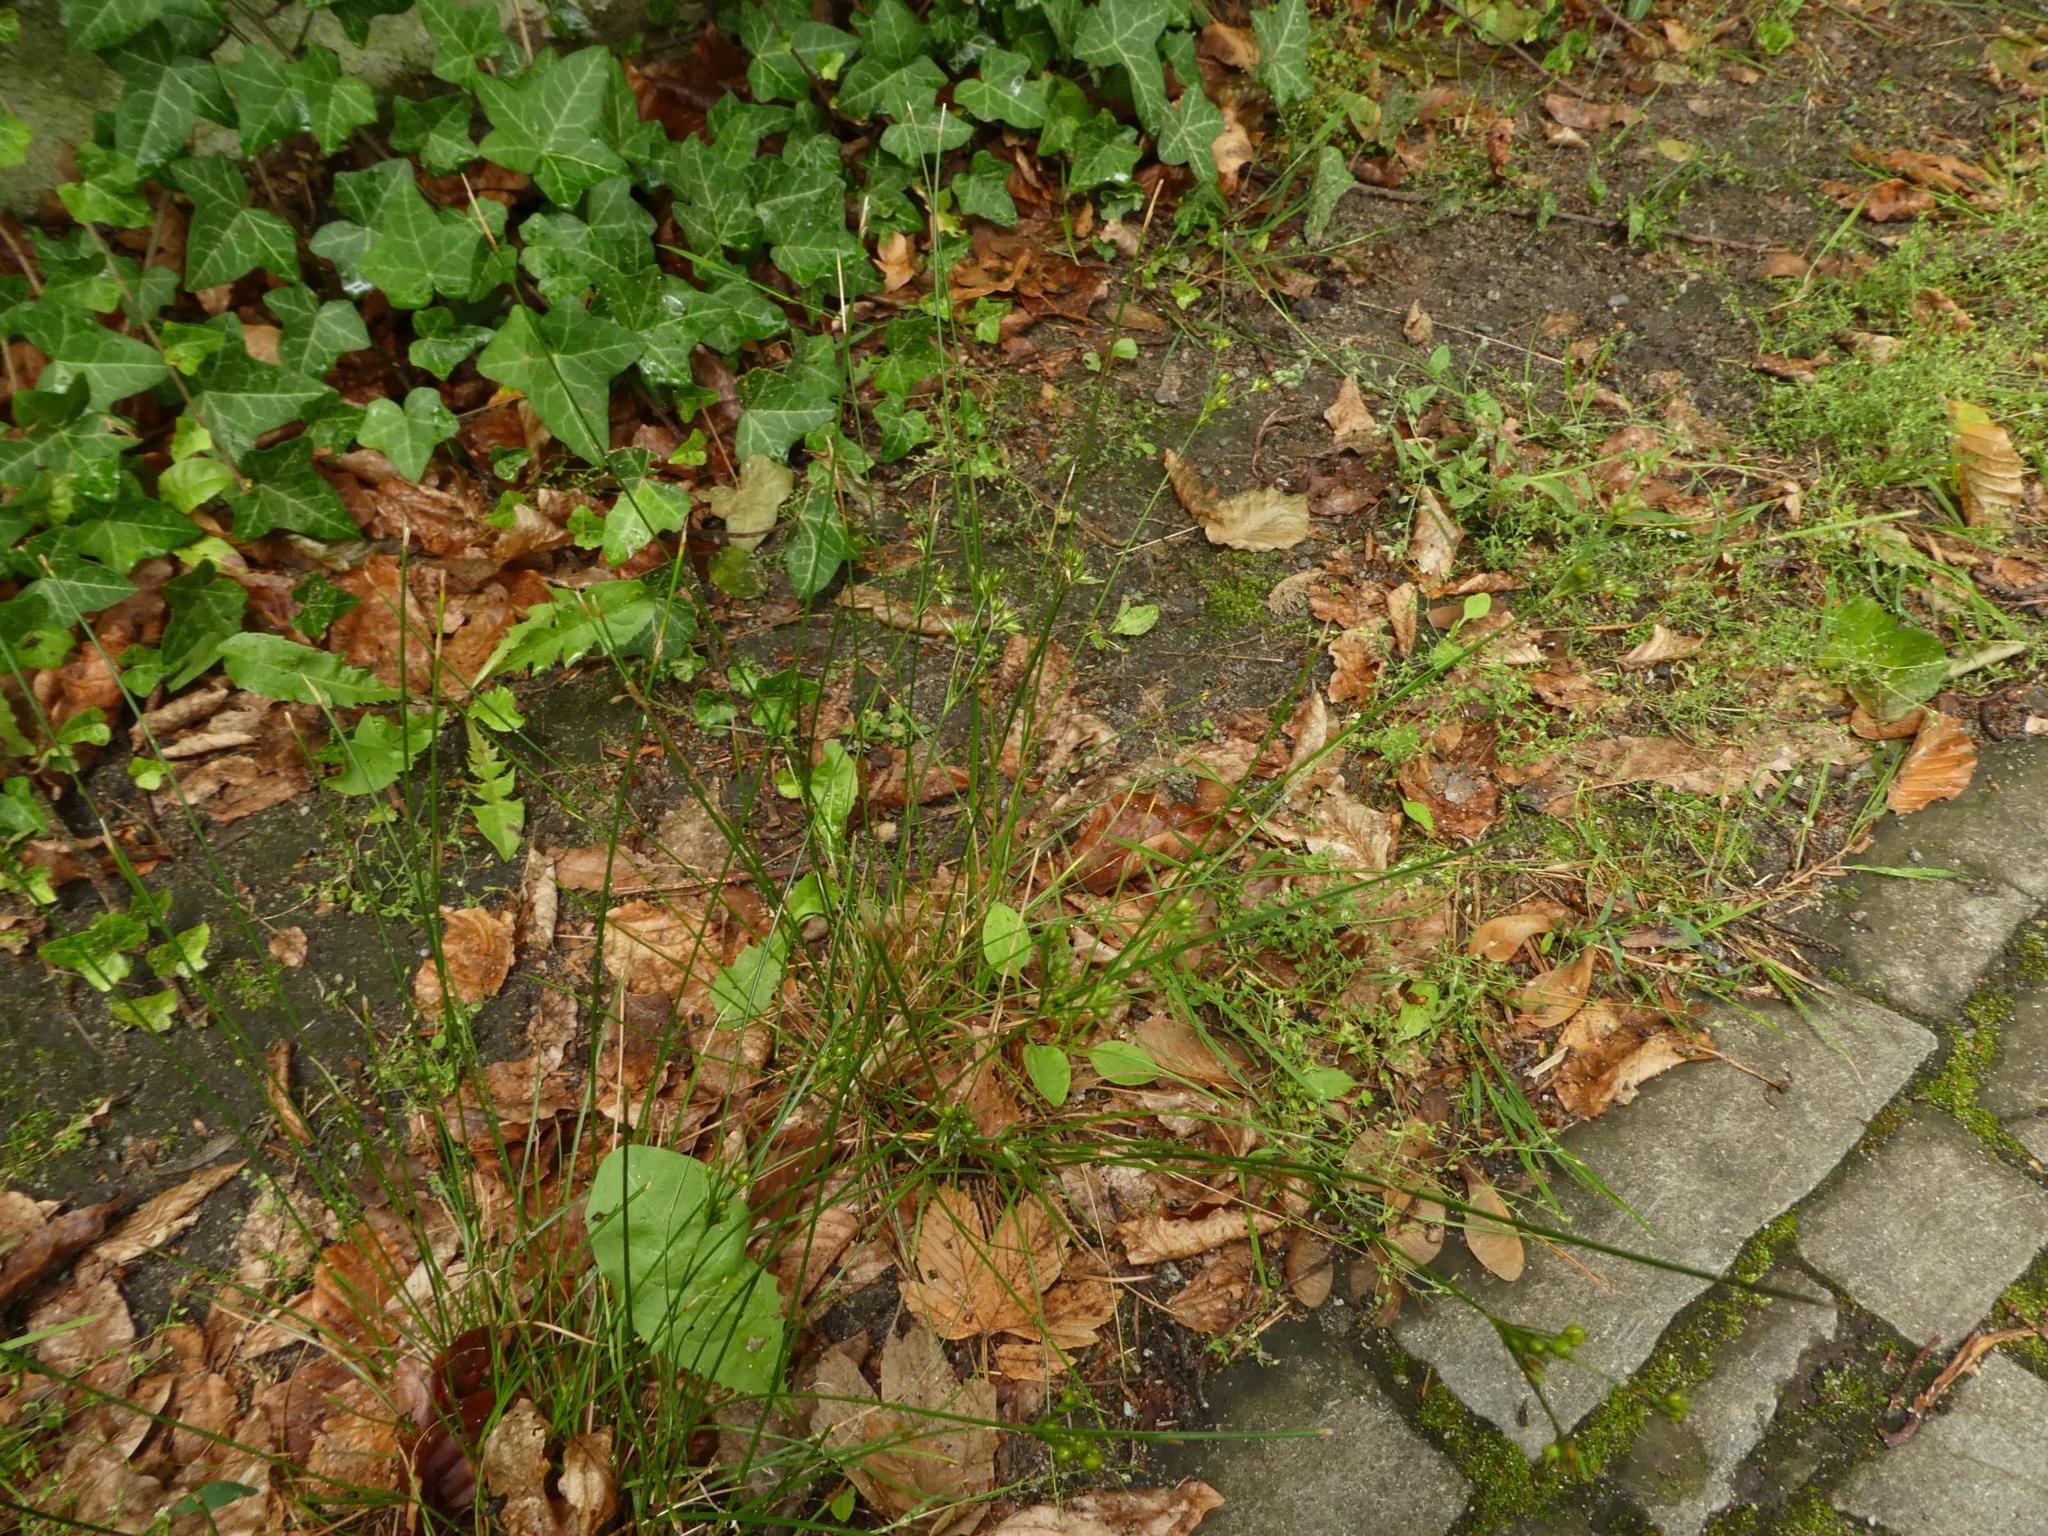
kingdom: Plantae
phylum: Tracheophyta
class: Liliopsida
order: Poales
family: Juncaceae
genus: Juncus
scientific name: Juncus tenuis
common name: Slender rush
